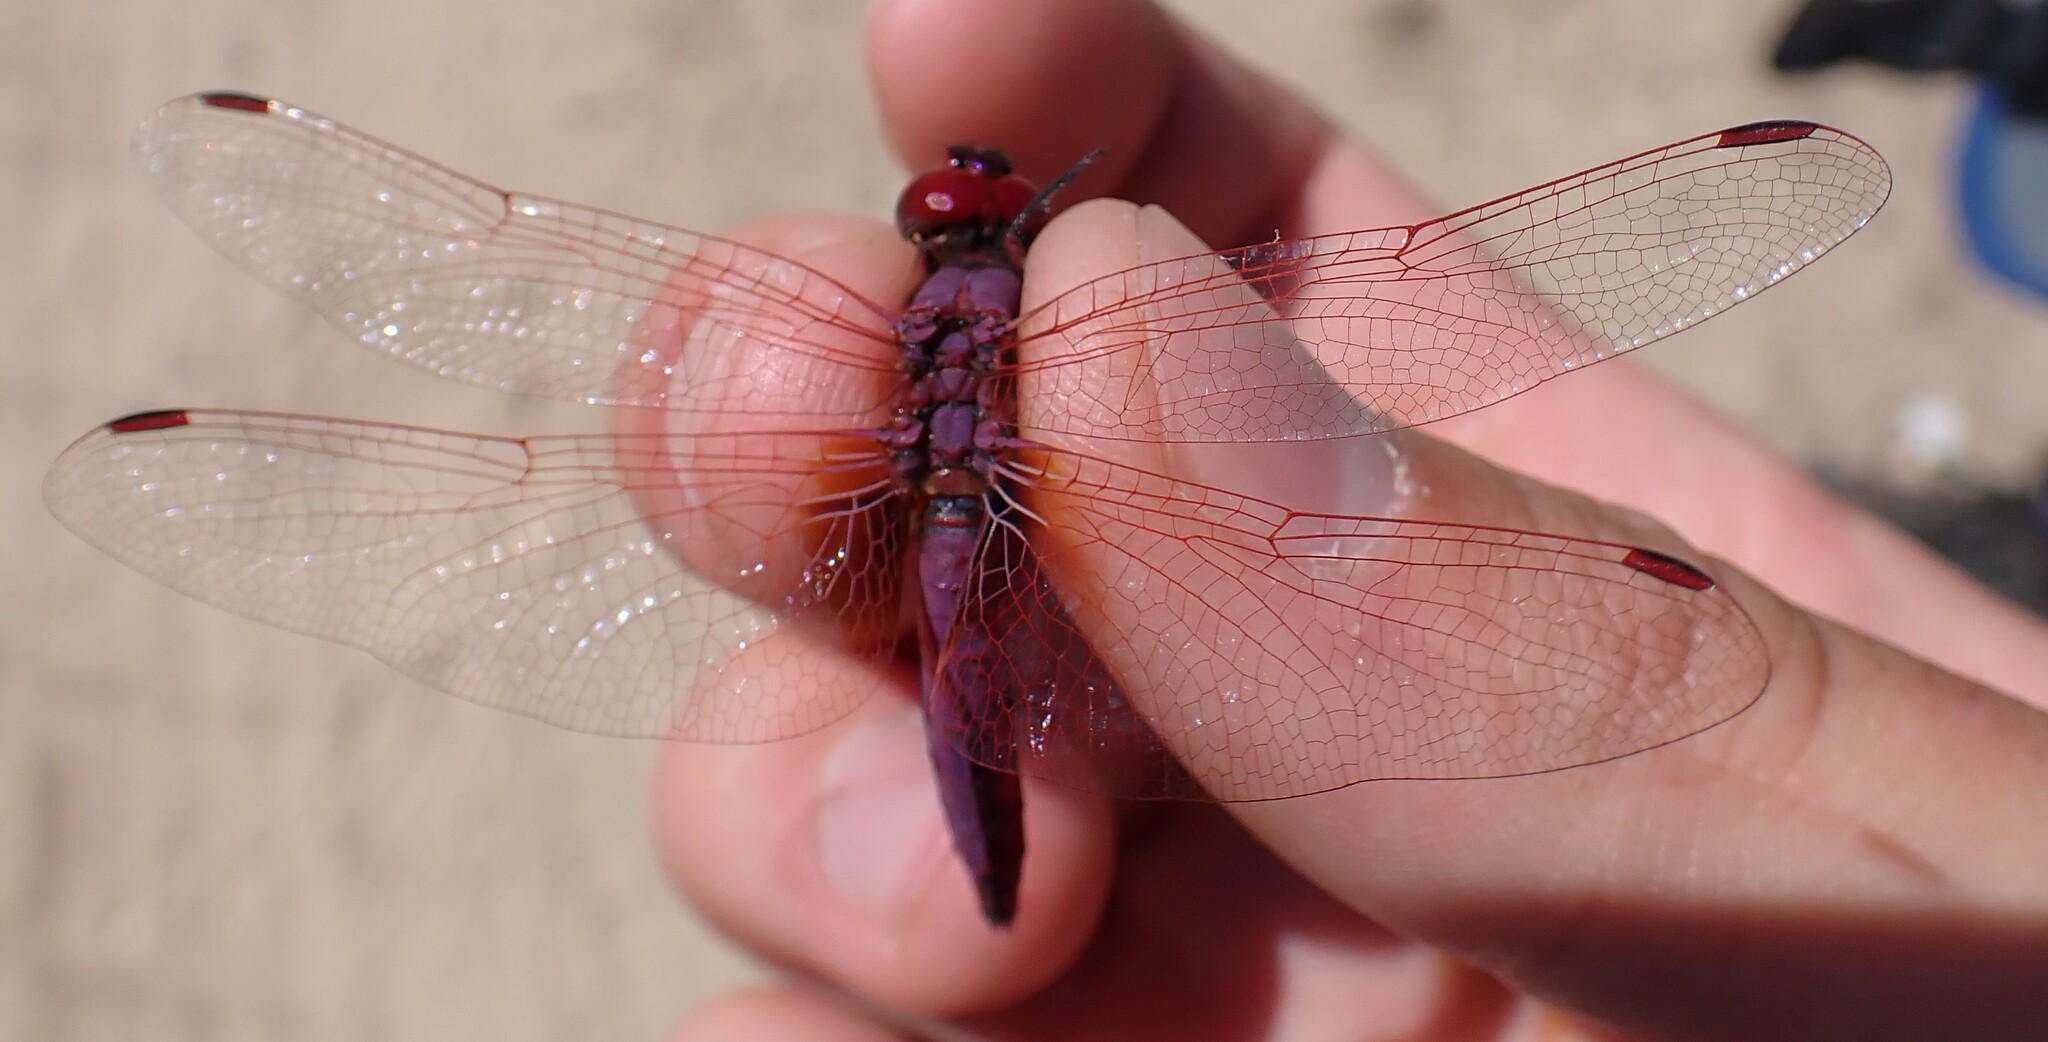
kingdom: Animalia
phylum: Arthropoda
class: Insecta
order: Odonata
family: Libellulidae
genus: Trithemis
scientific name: Trithemis annulata
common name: Violet dropwing
